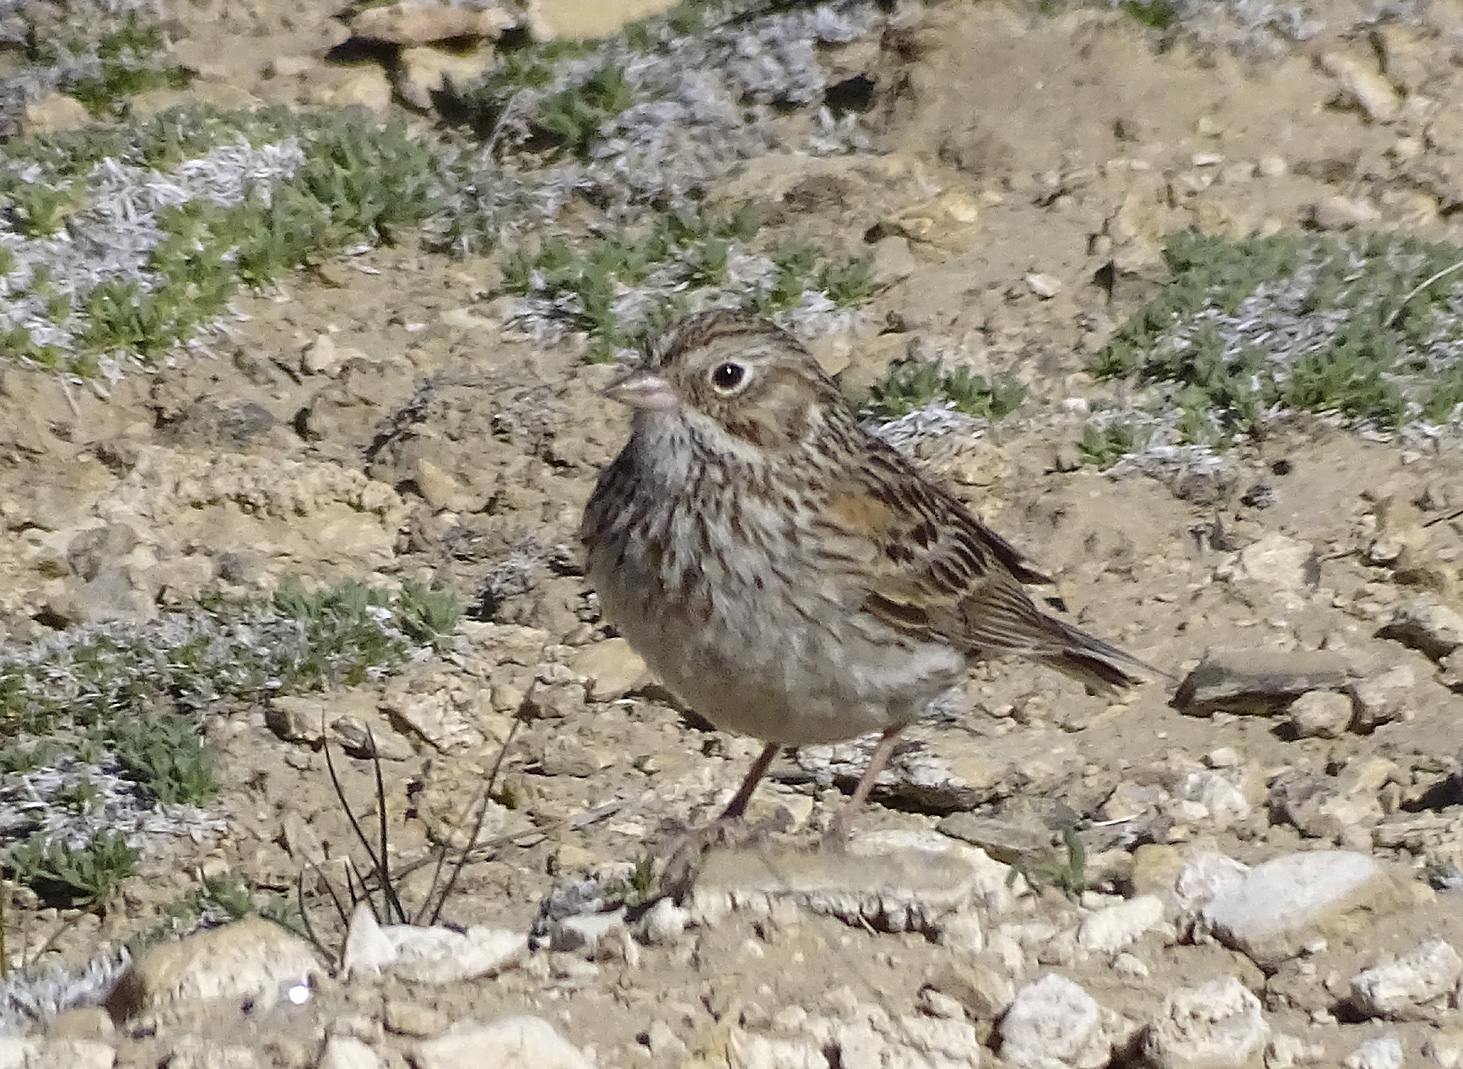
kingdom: Animalia
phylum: Chordata
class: Aves
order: Passeriformes
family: Passerellidae
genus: Pooecetes
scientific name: Pooecetes gramineus
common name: Vesper sparrow
